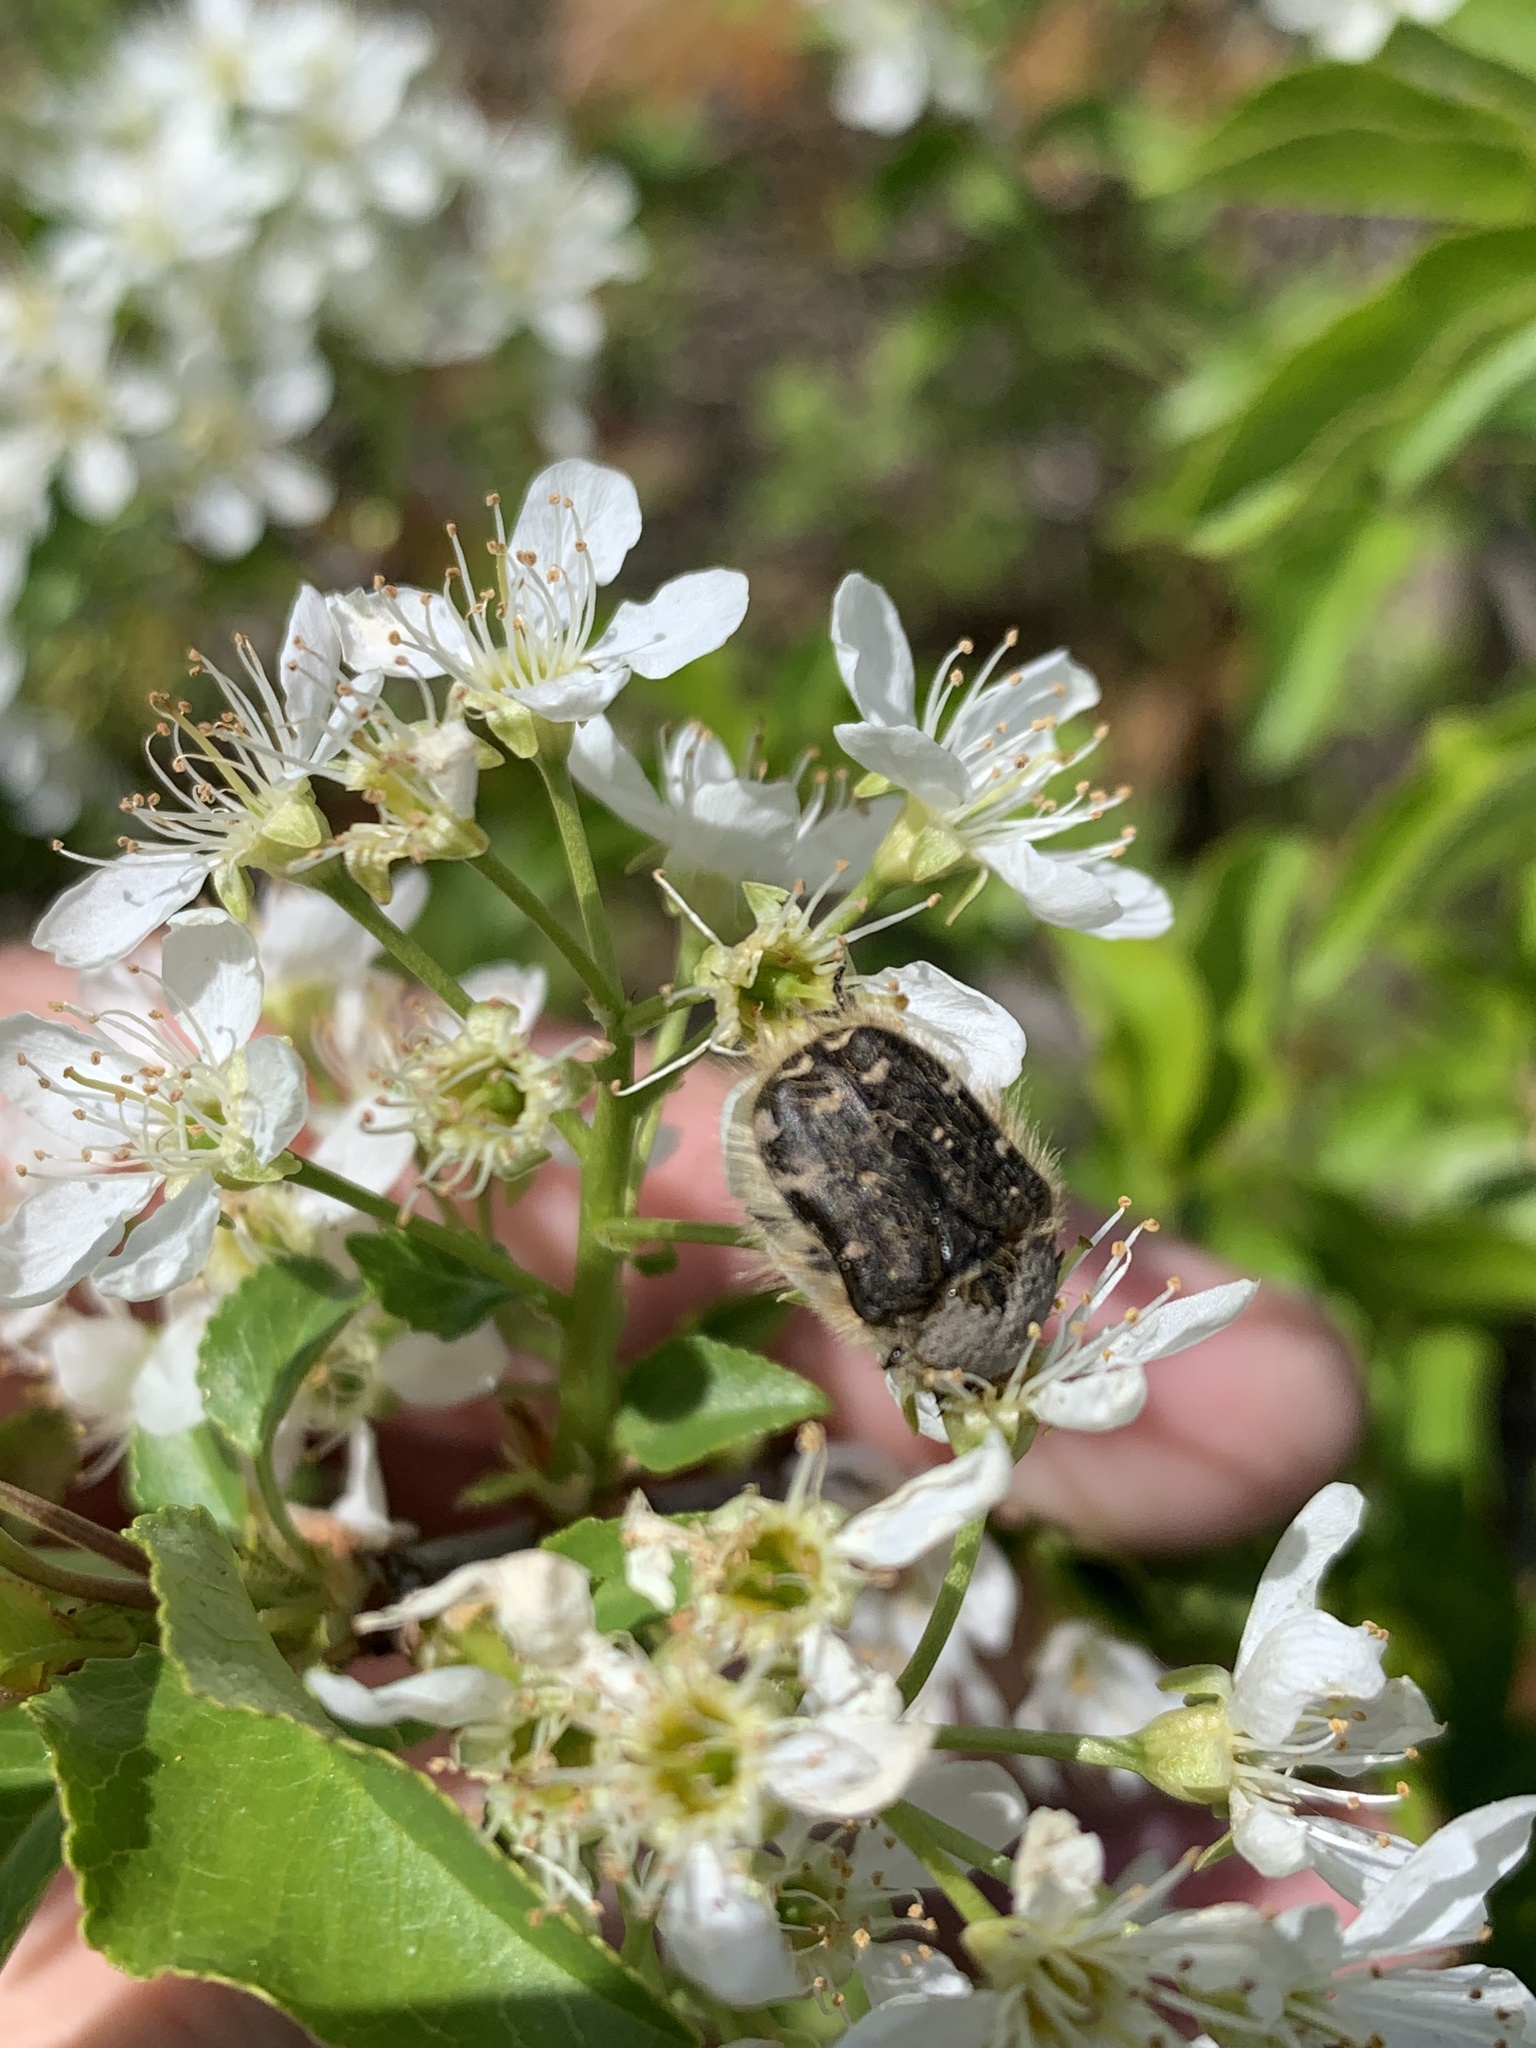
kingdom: Animalia
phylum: Arthropoda
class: Insecta
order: Coleoptera
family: Scarabaeidae
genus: Tropinota
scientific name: Tropinota hirta
